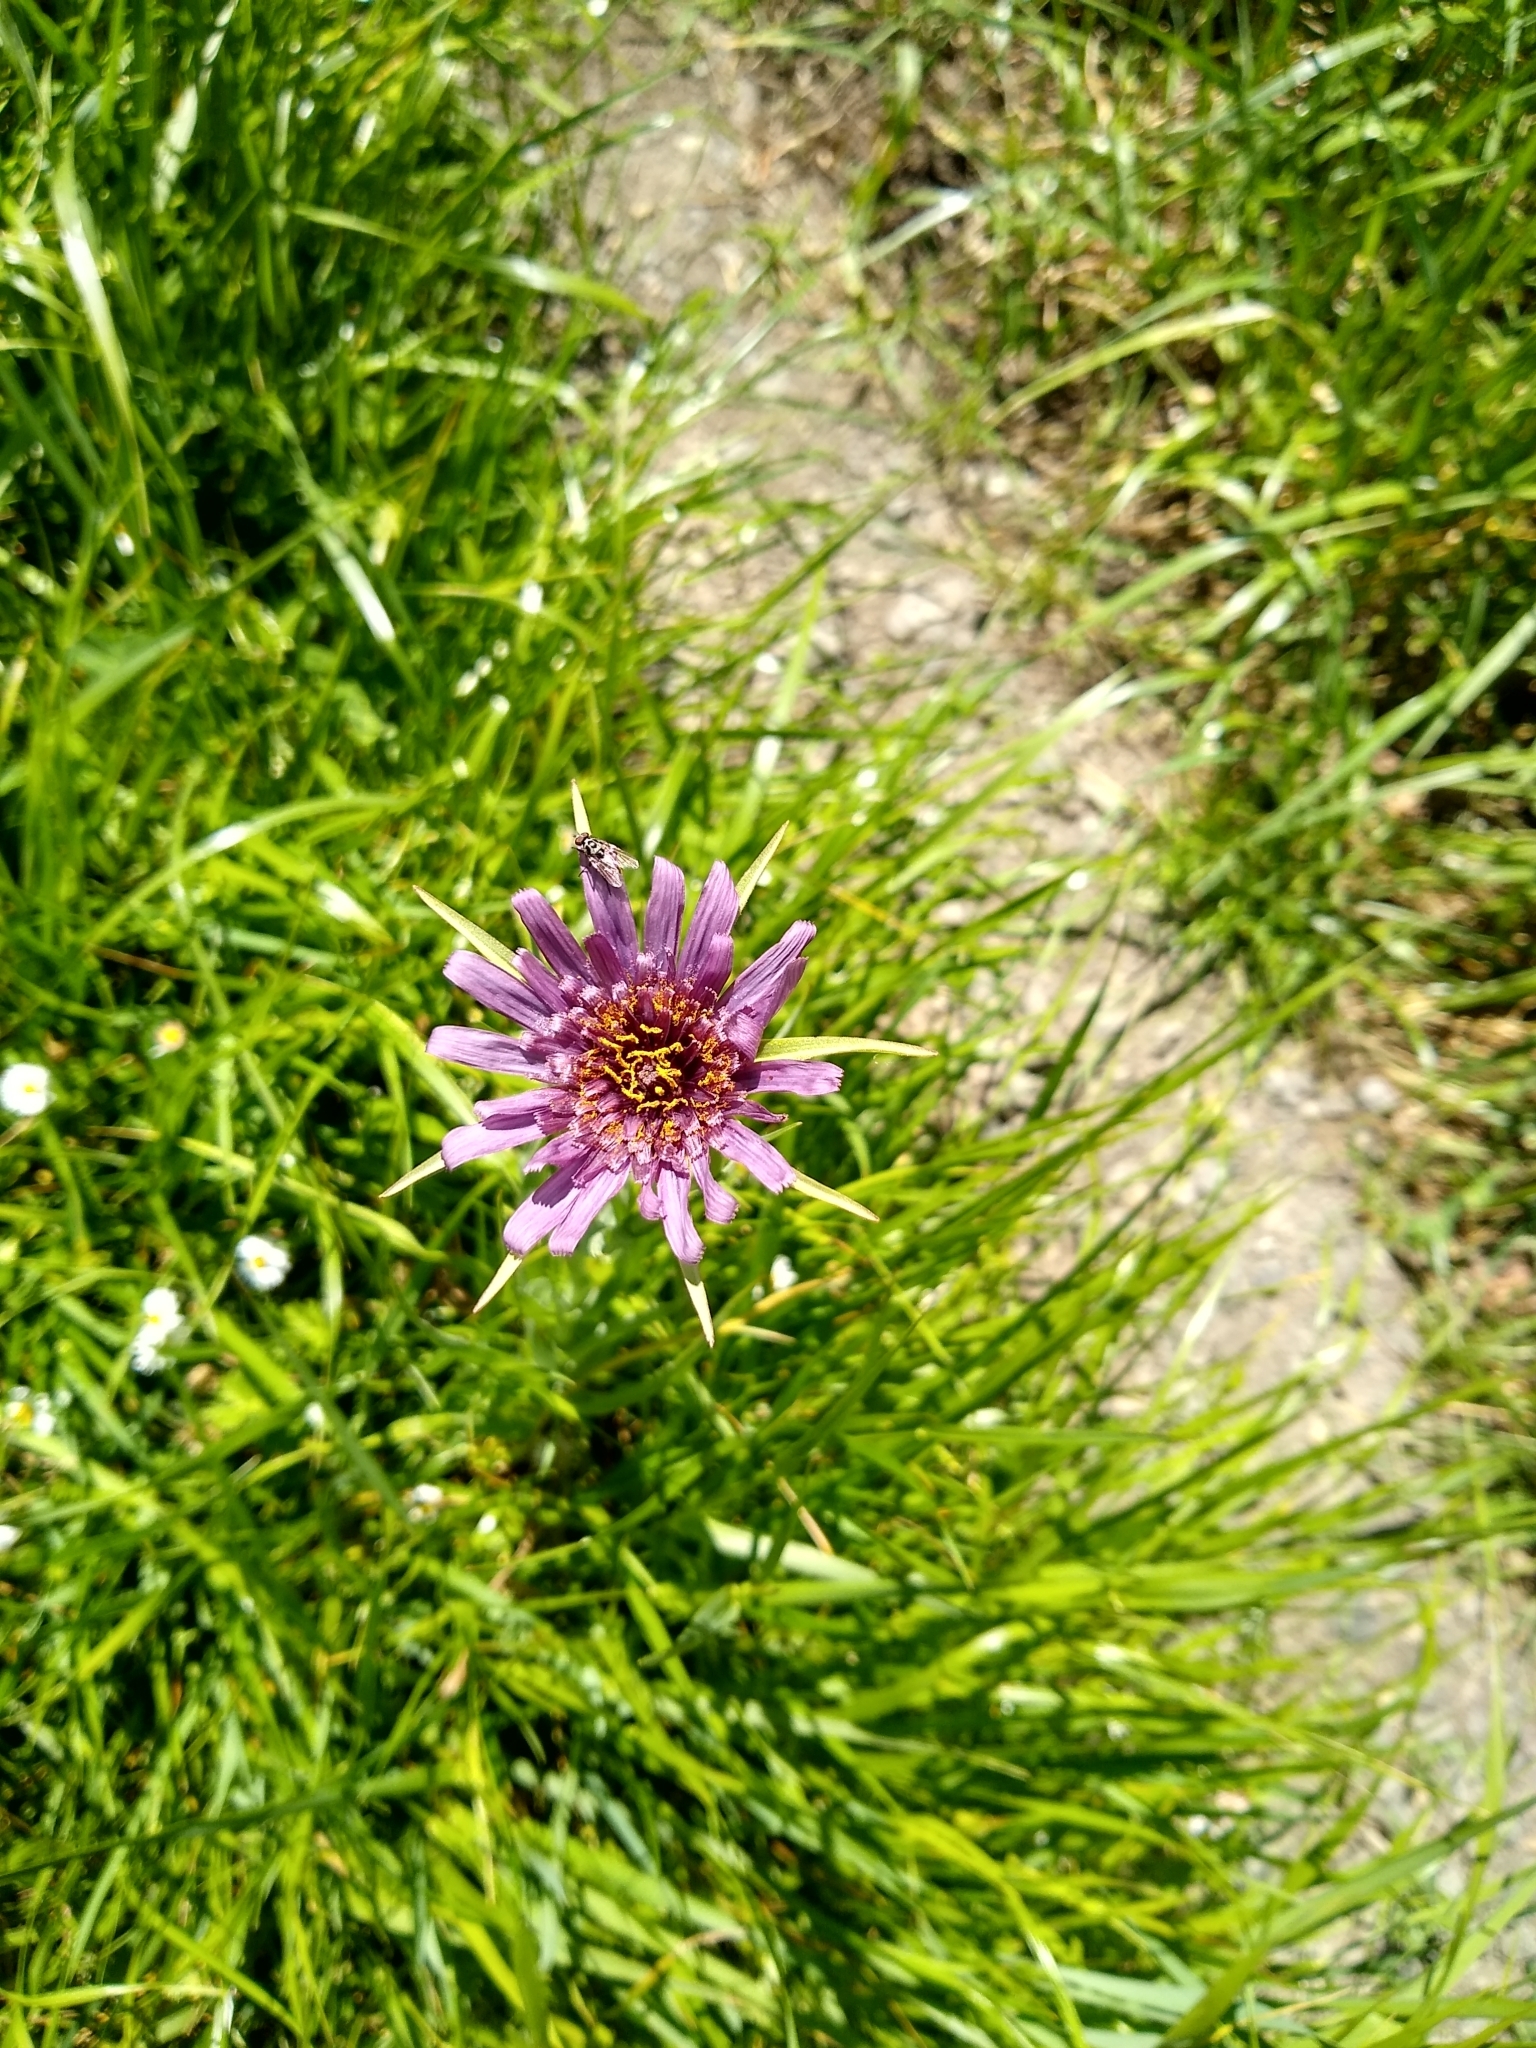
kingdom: Plantae
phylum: Tracheophyta
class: Magnoliopsida
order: Asterales
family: Asteraceae
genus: Tragopogon
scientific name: Tragopogon porrifolius
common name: Salsify
